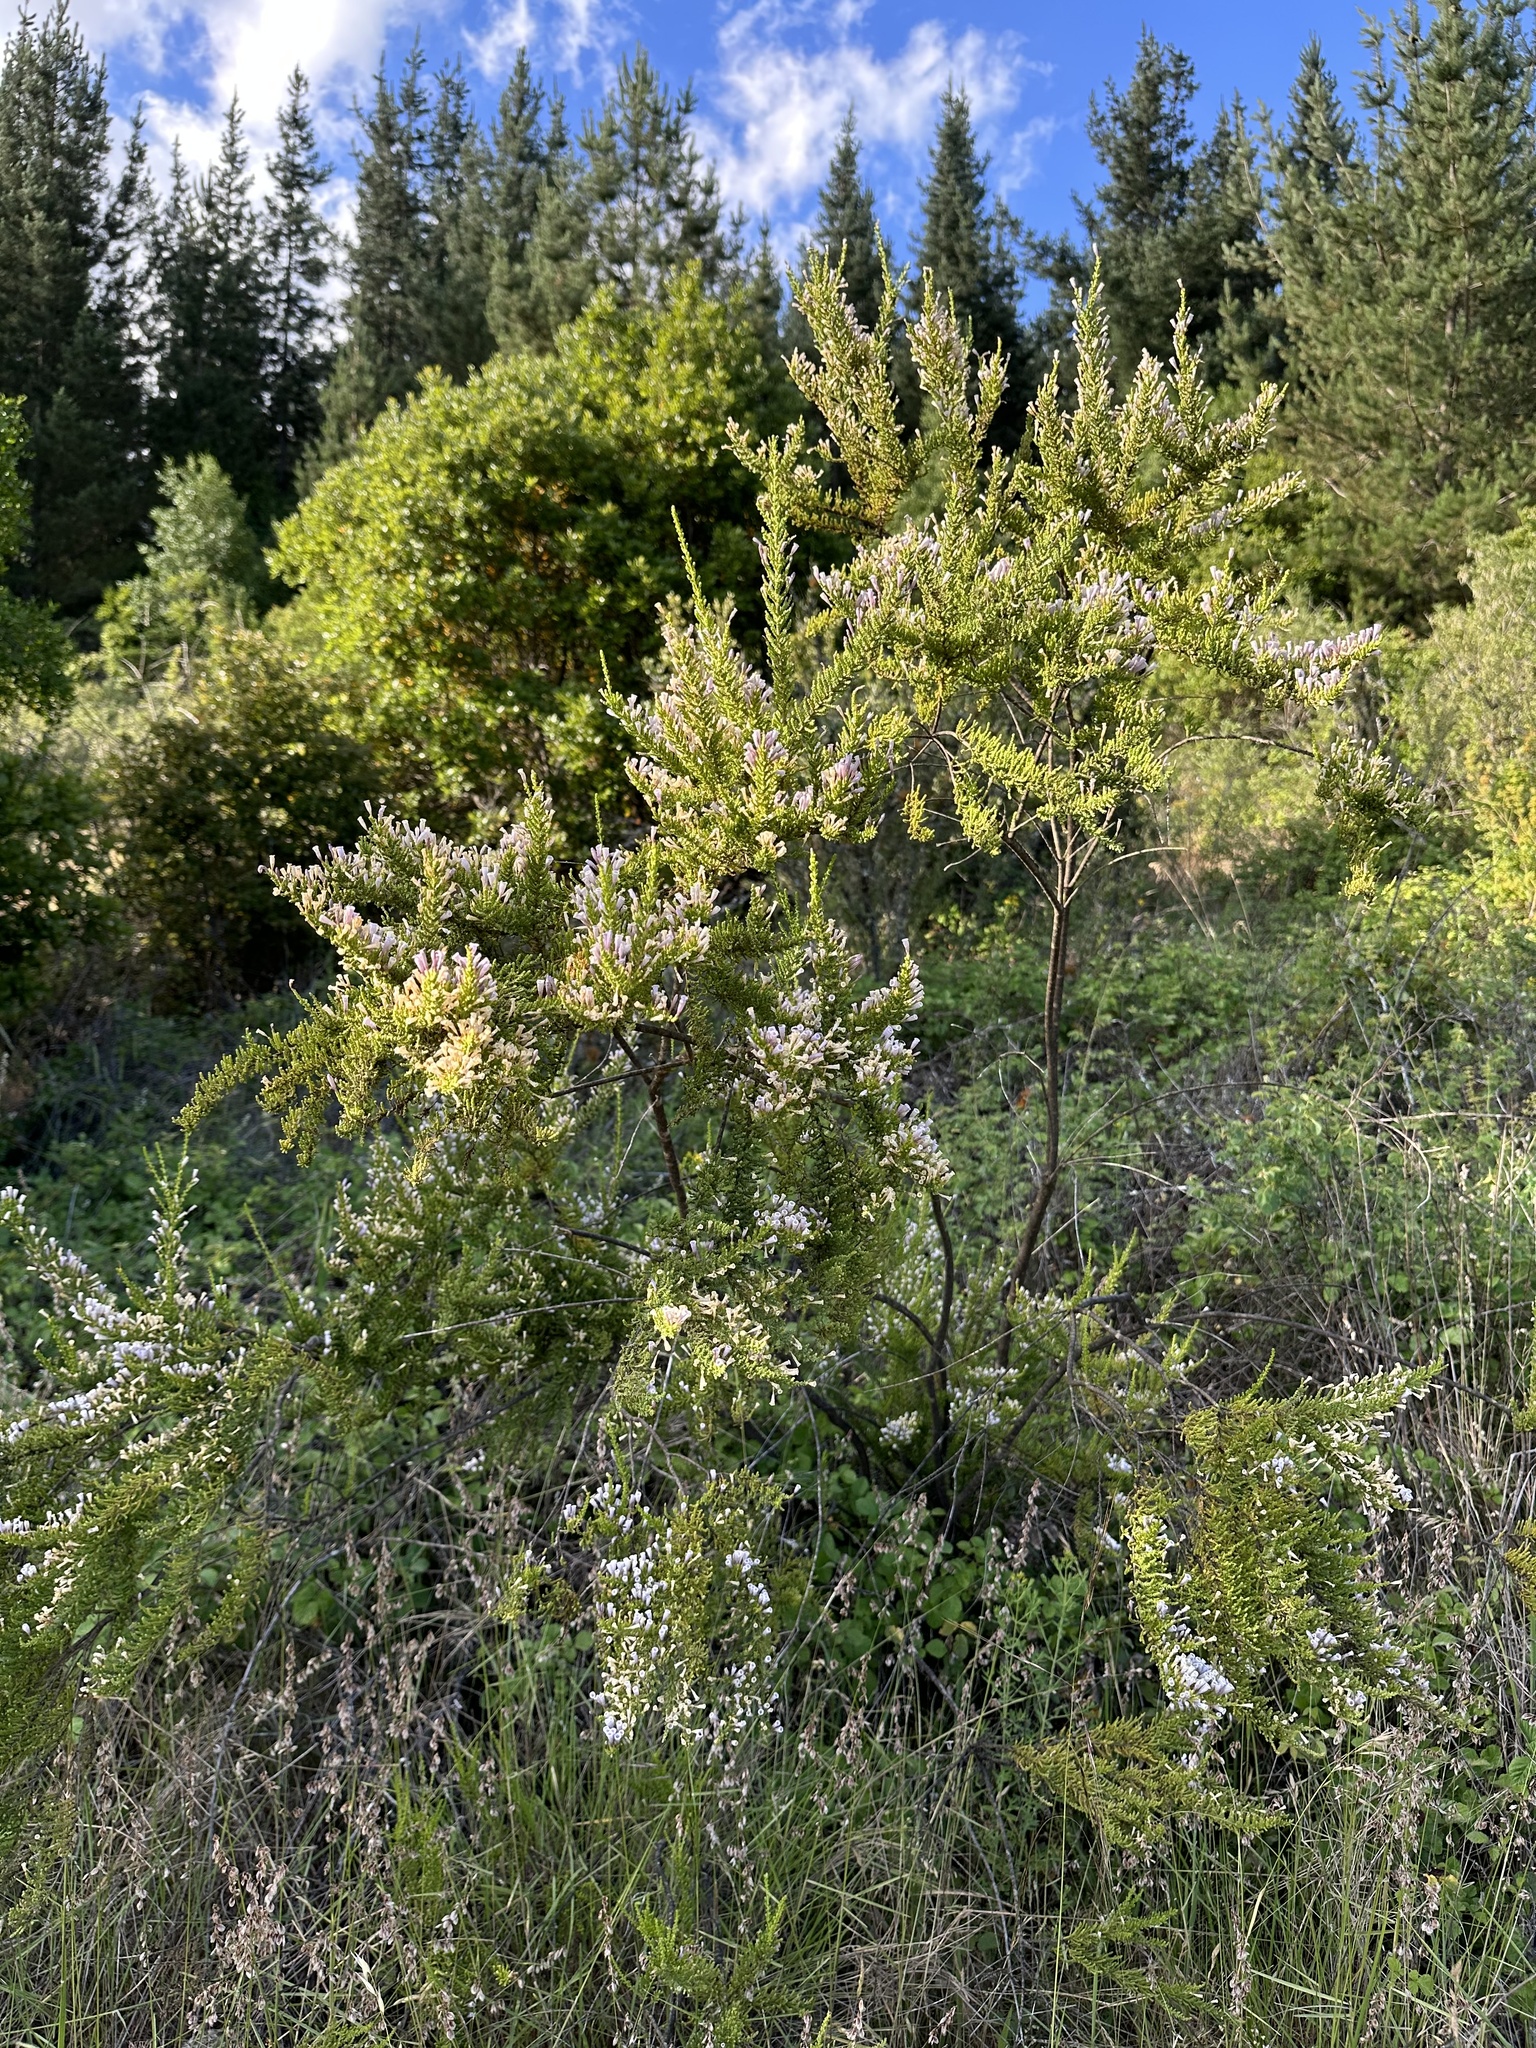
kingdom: Plantae
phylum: Tracheophyta
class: Magnoliopsida
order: Solanales
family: Solanaceae
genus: Fabiana
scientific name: Fabiana imbricata
